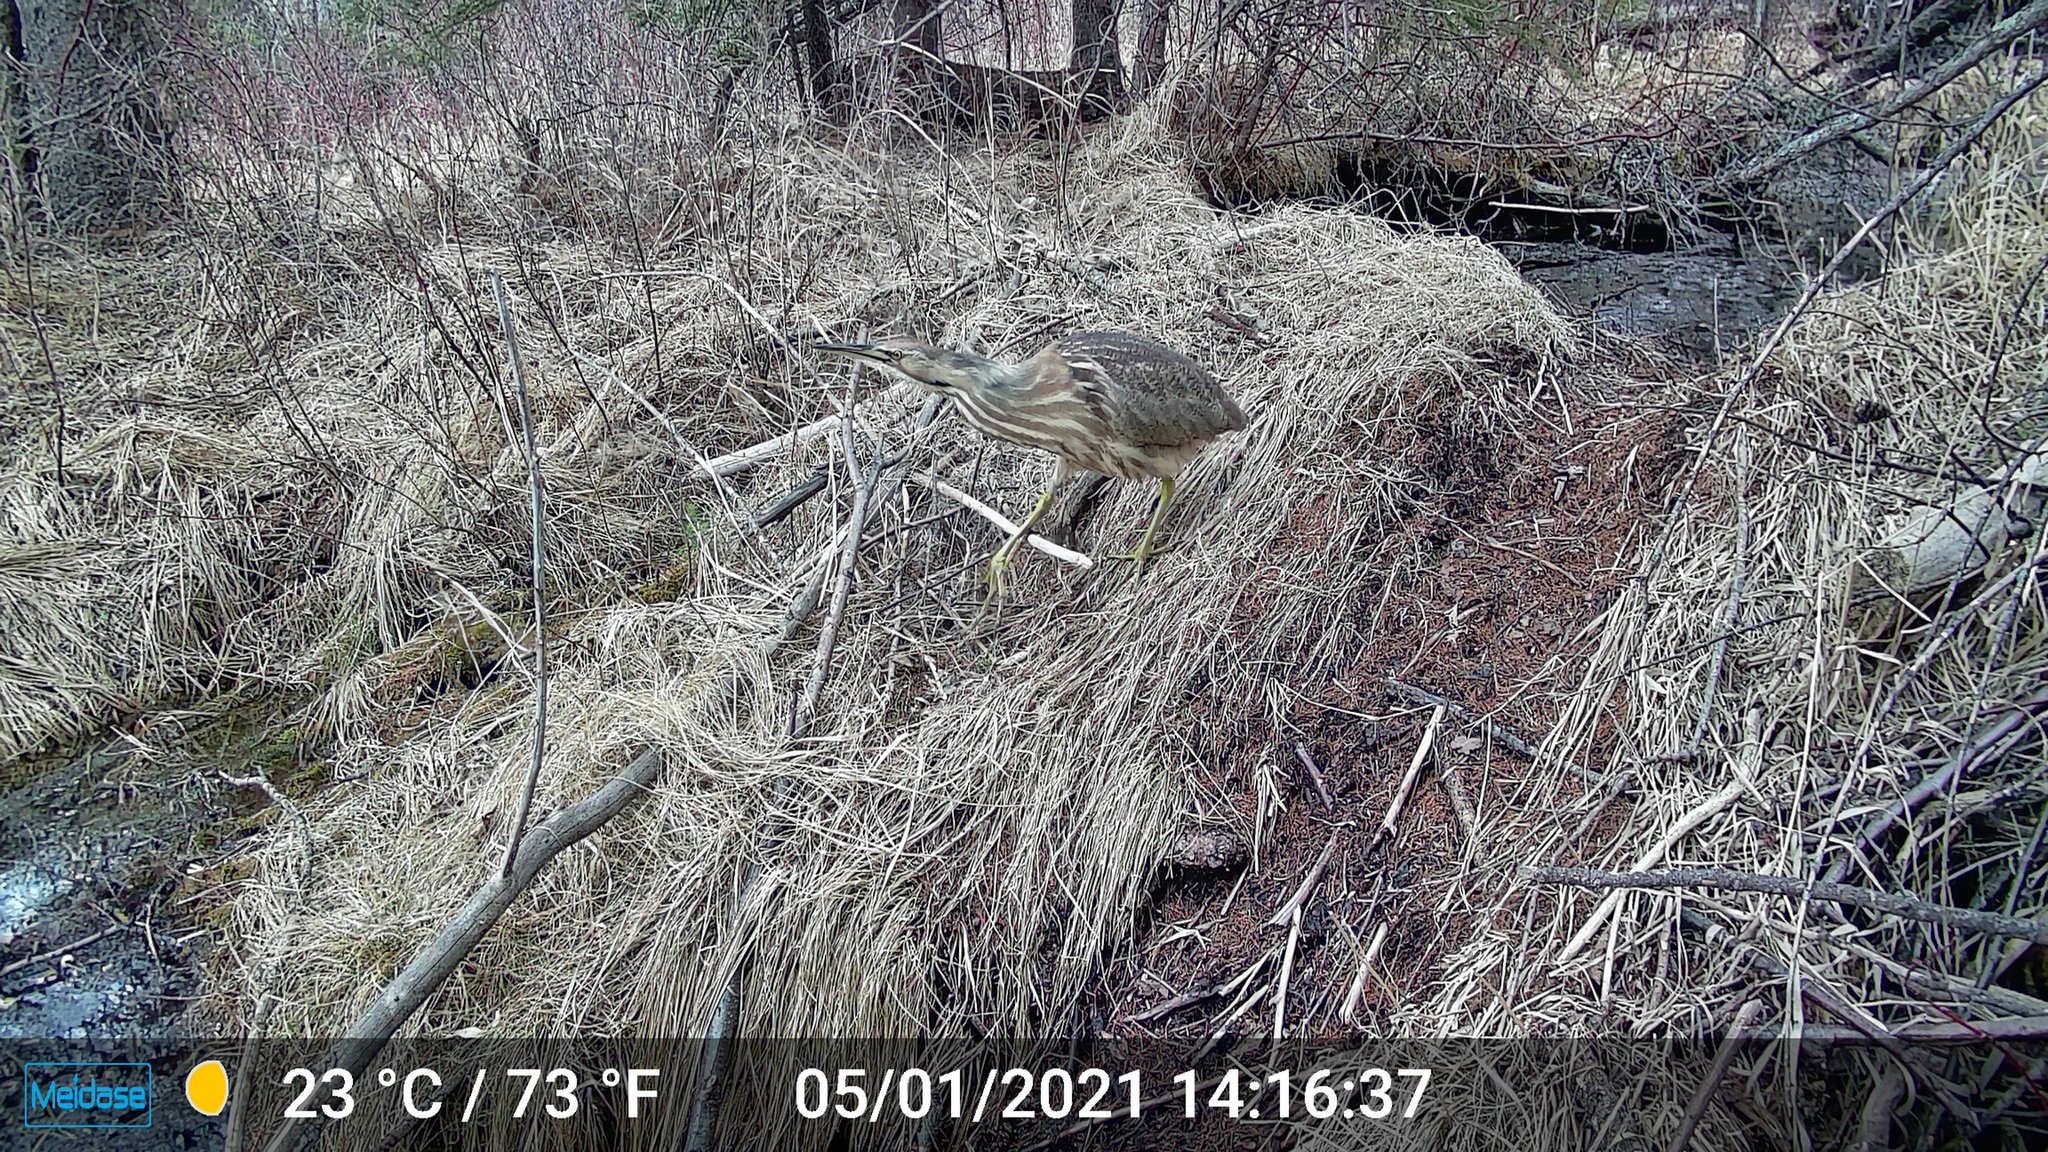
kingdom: Animalia
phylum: Chordata
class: Aves
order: Pelecaniformes
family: Ardeidae
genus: Botaurus
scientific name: Botaurus lentiginosus
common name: American bittern
